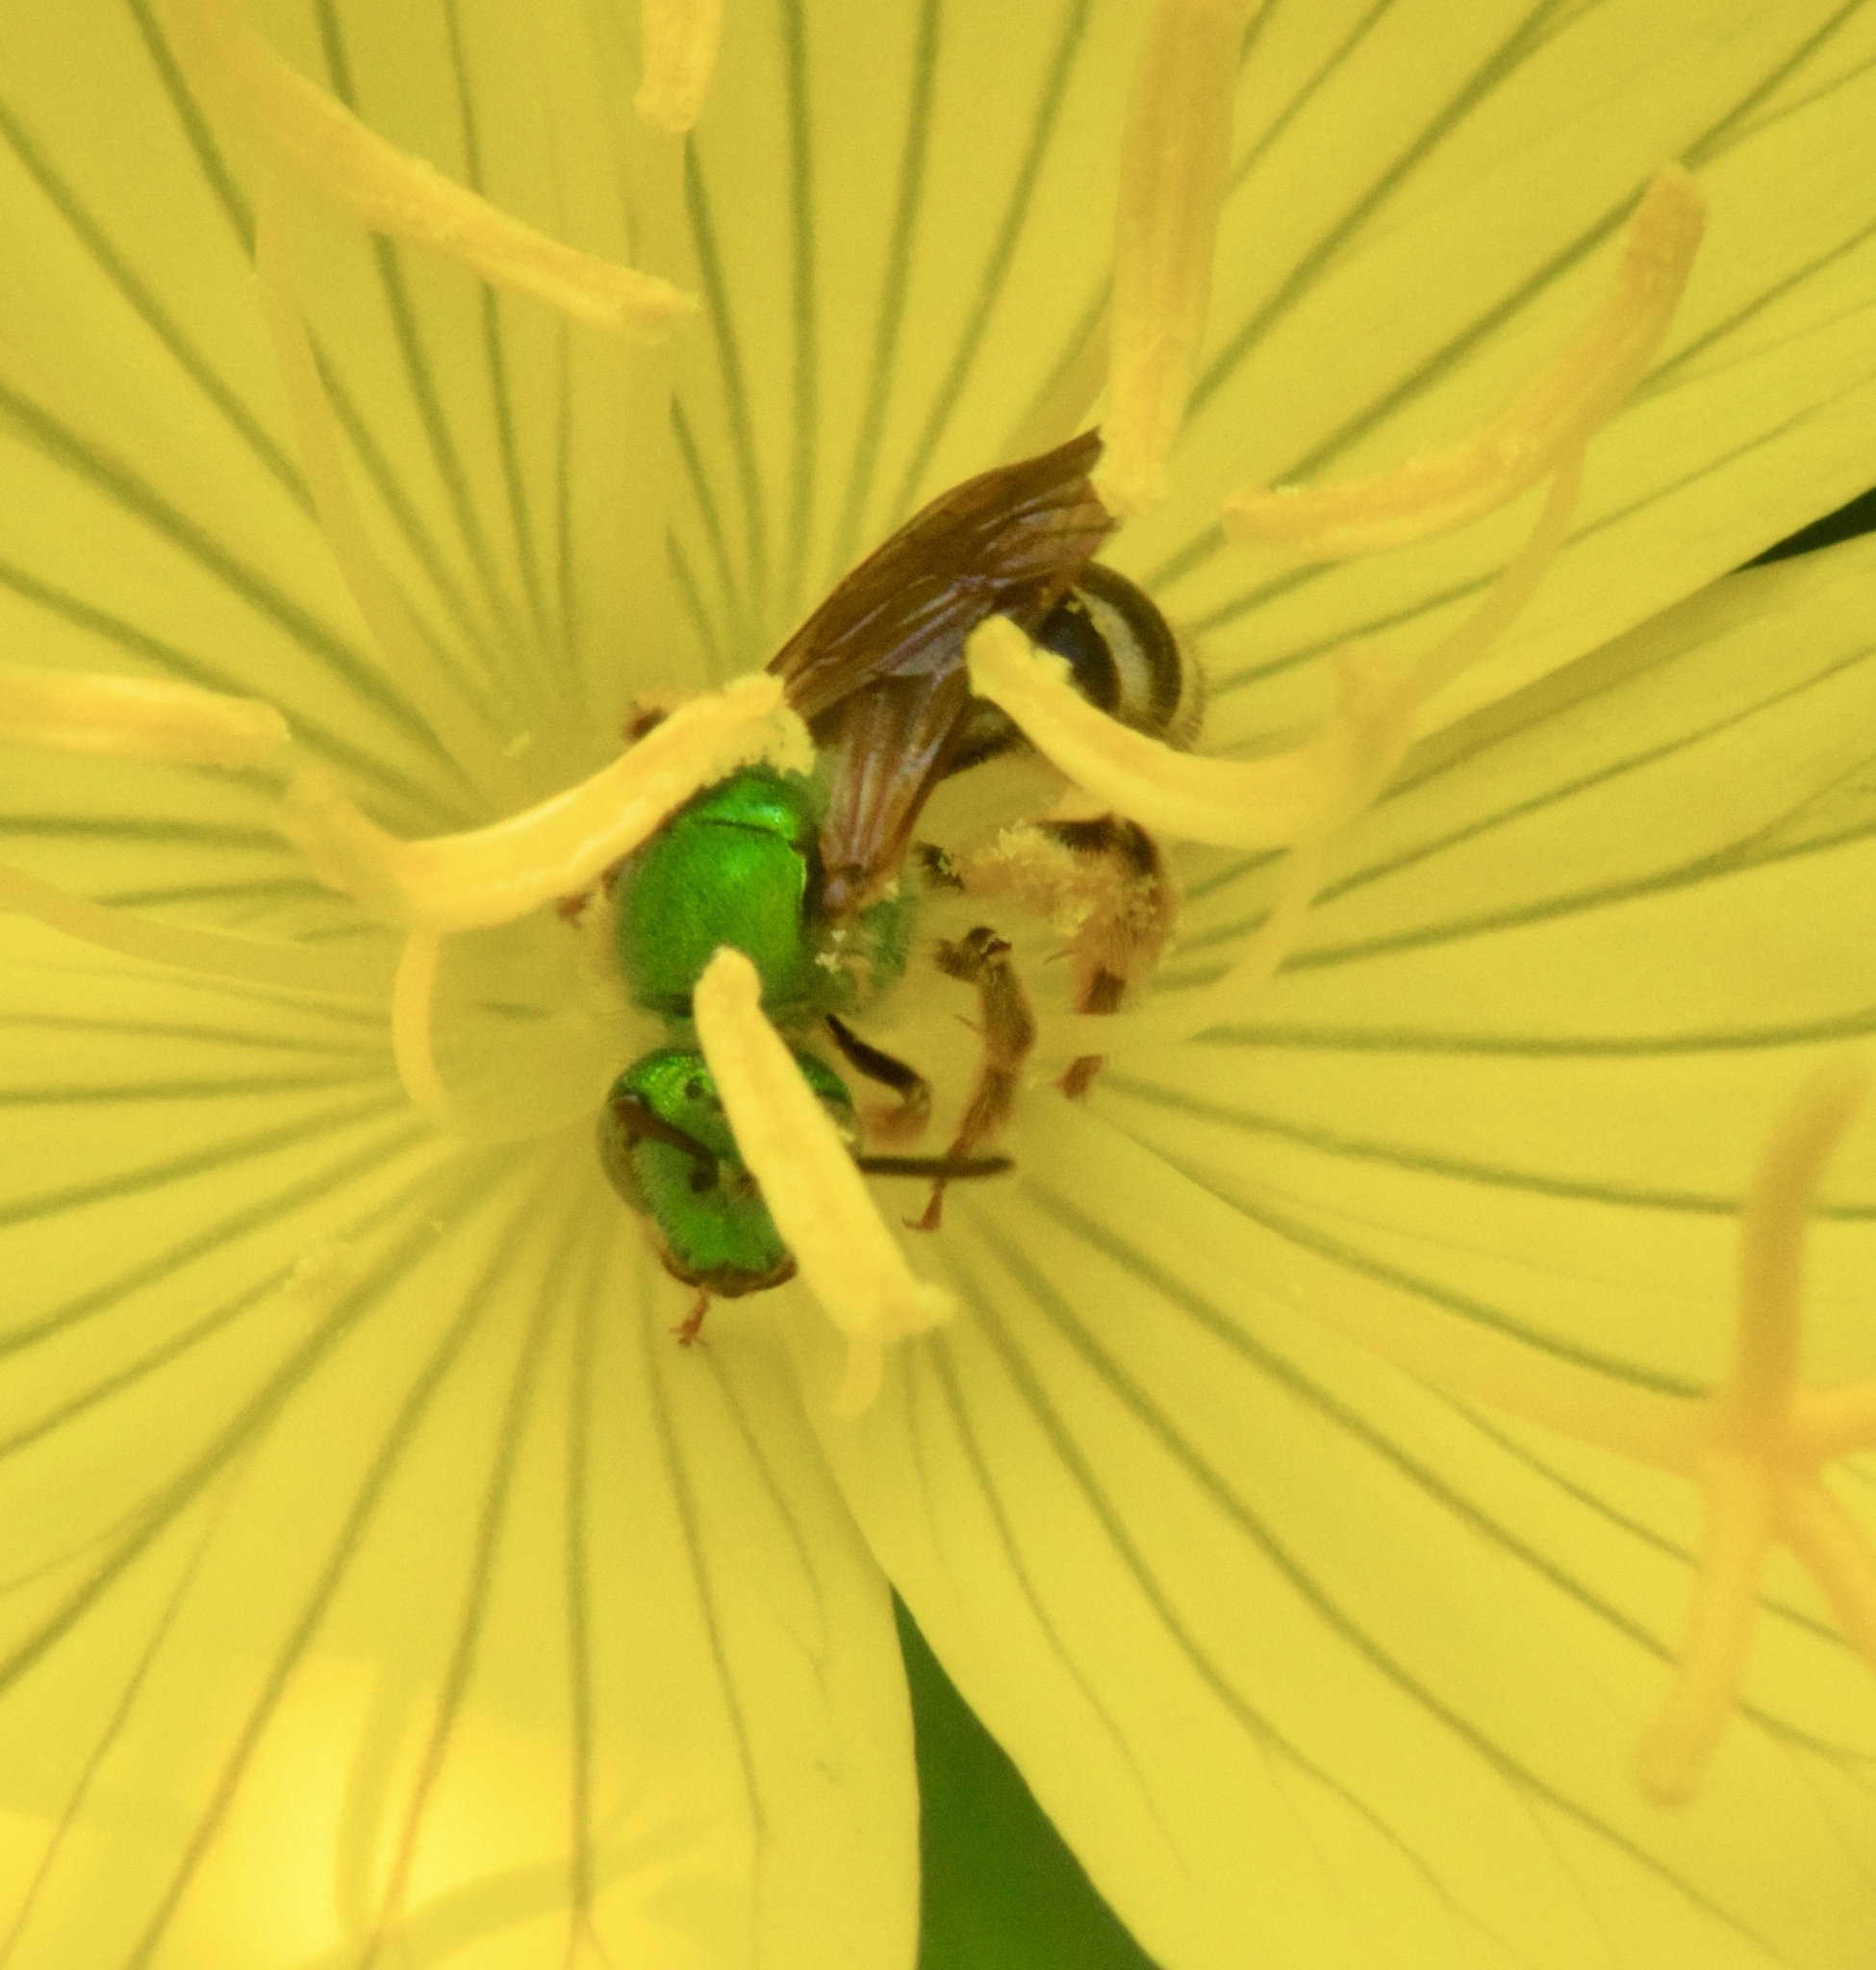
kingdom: Animalia
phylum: Arthropoda
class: Insecta
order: Hymenoptera
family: Halictidae
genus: Agapostemon
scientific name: Agapostemon virescens
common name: Bicolored striped sweat bee
